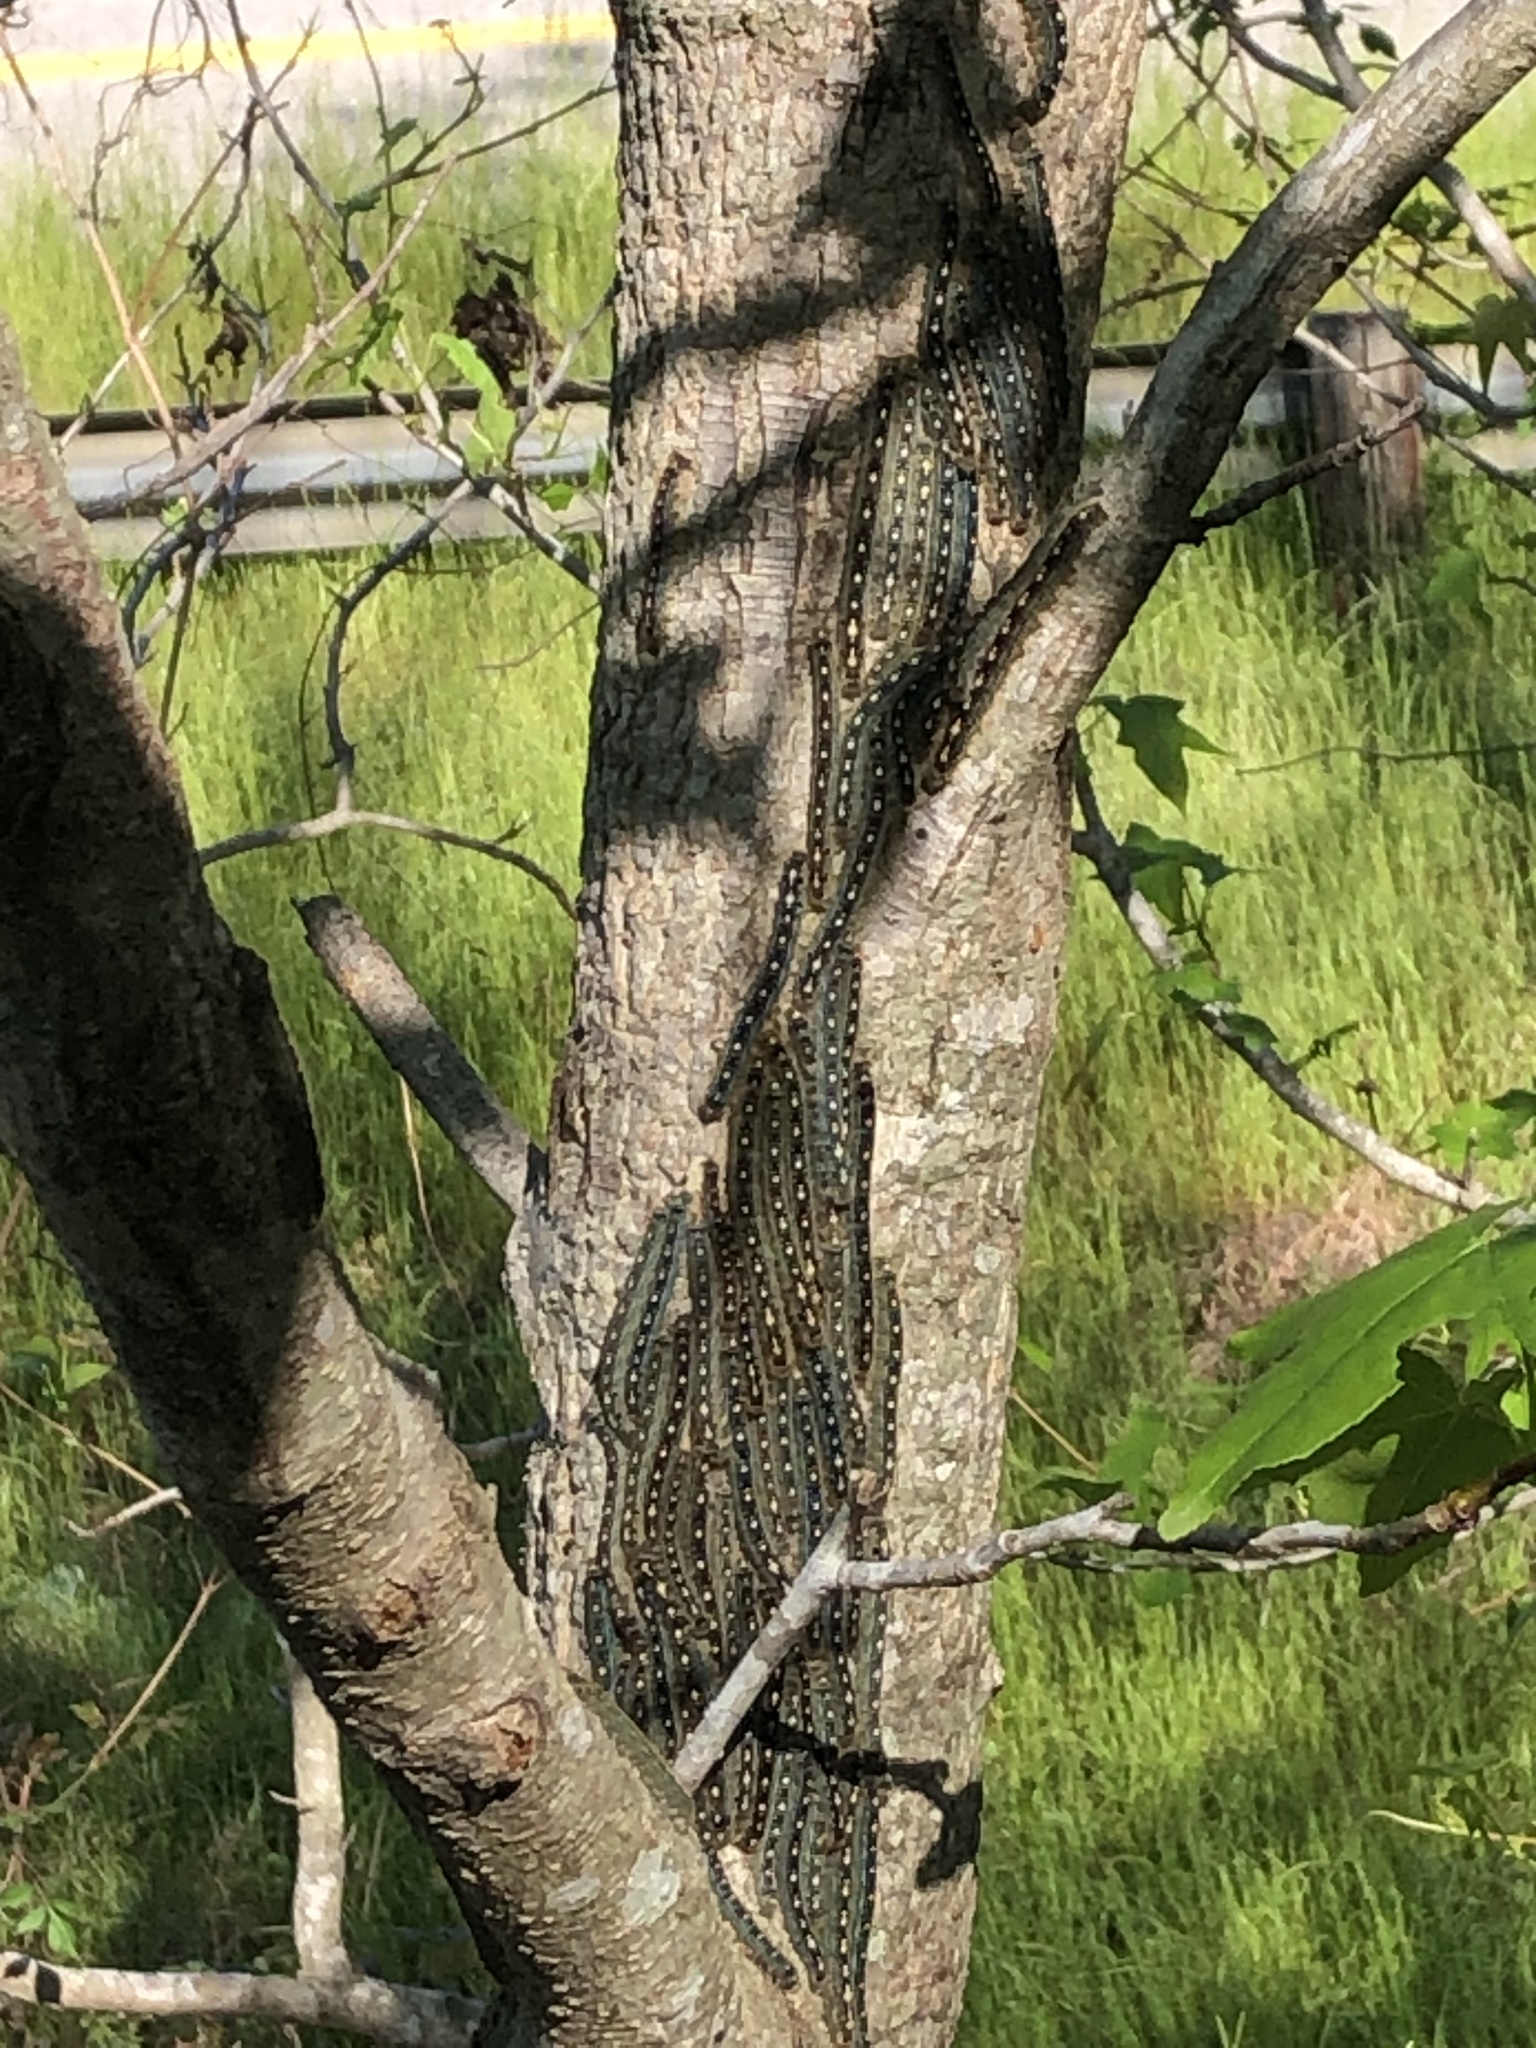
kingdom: Animalia
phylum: Arthropoda
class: Insecta
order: Lepidoptera
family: Lasiocampidae
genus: Malacosoma
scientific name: Malacosoma disstria
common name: Forest tent caterpillar
